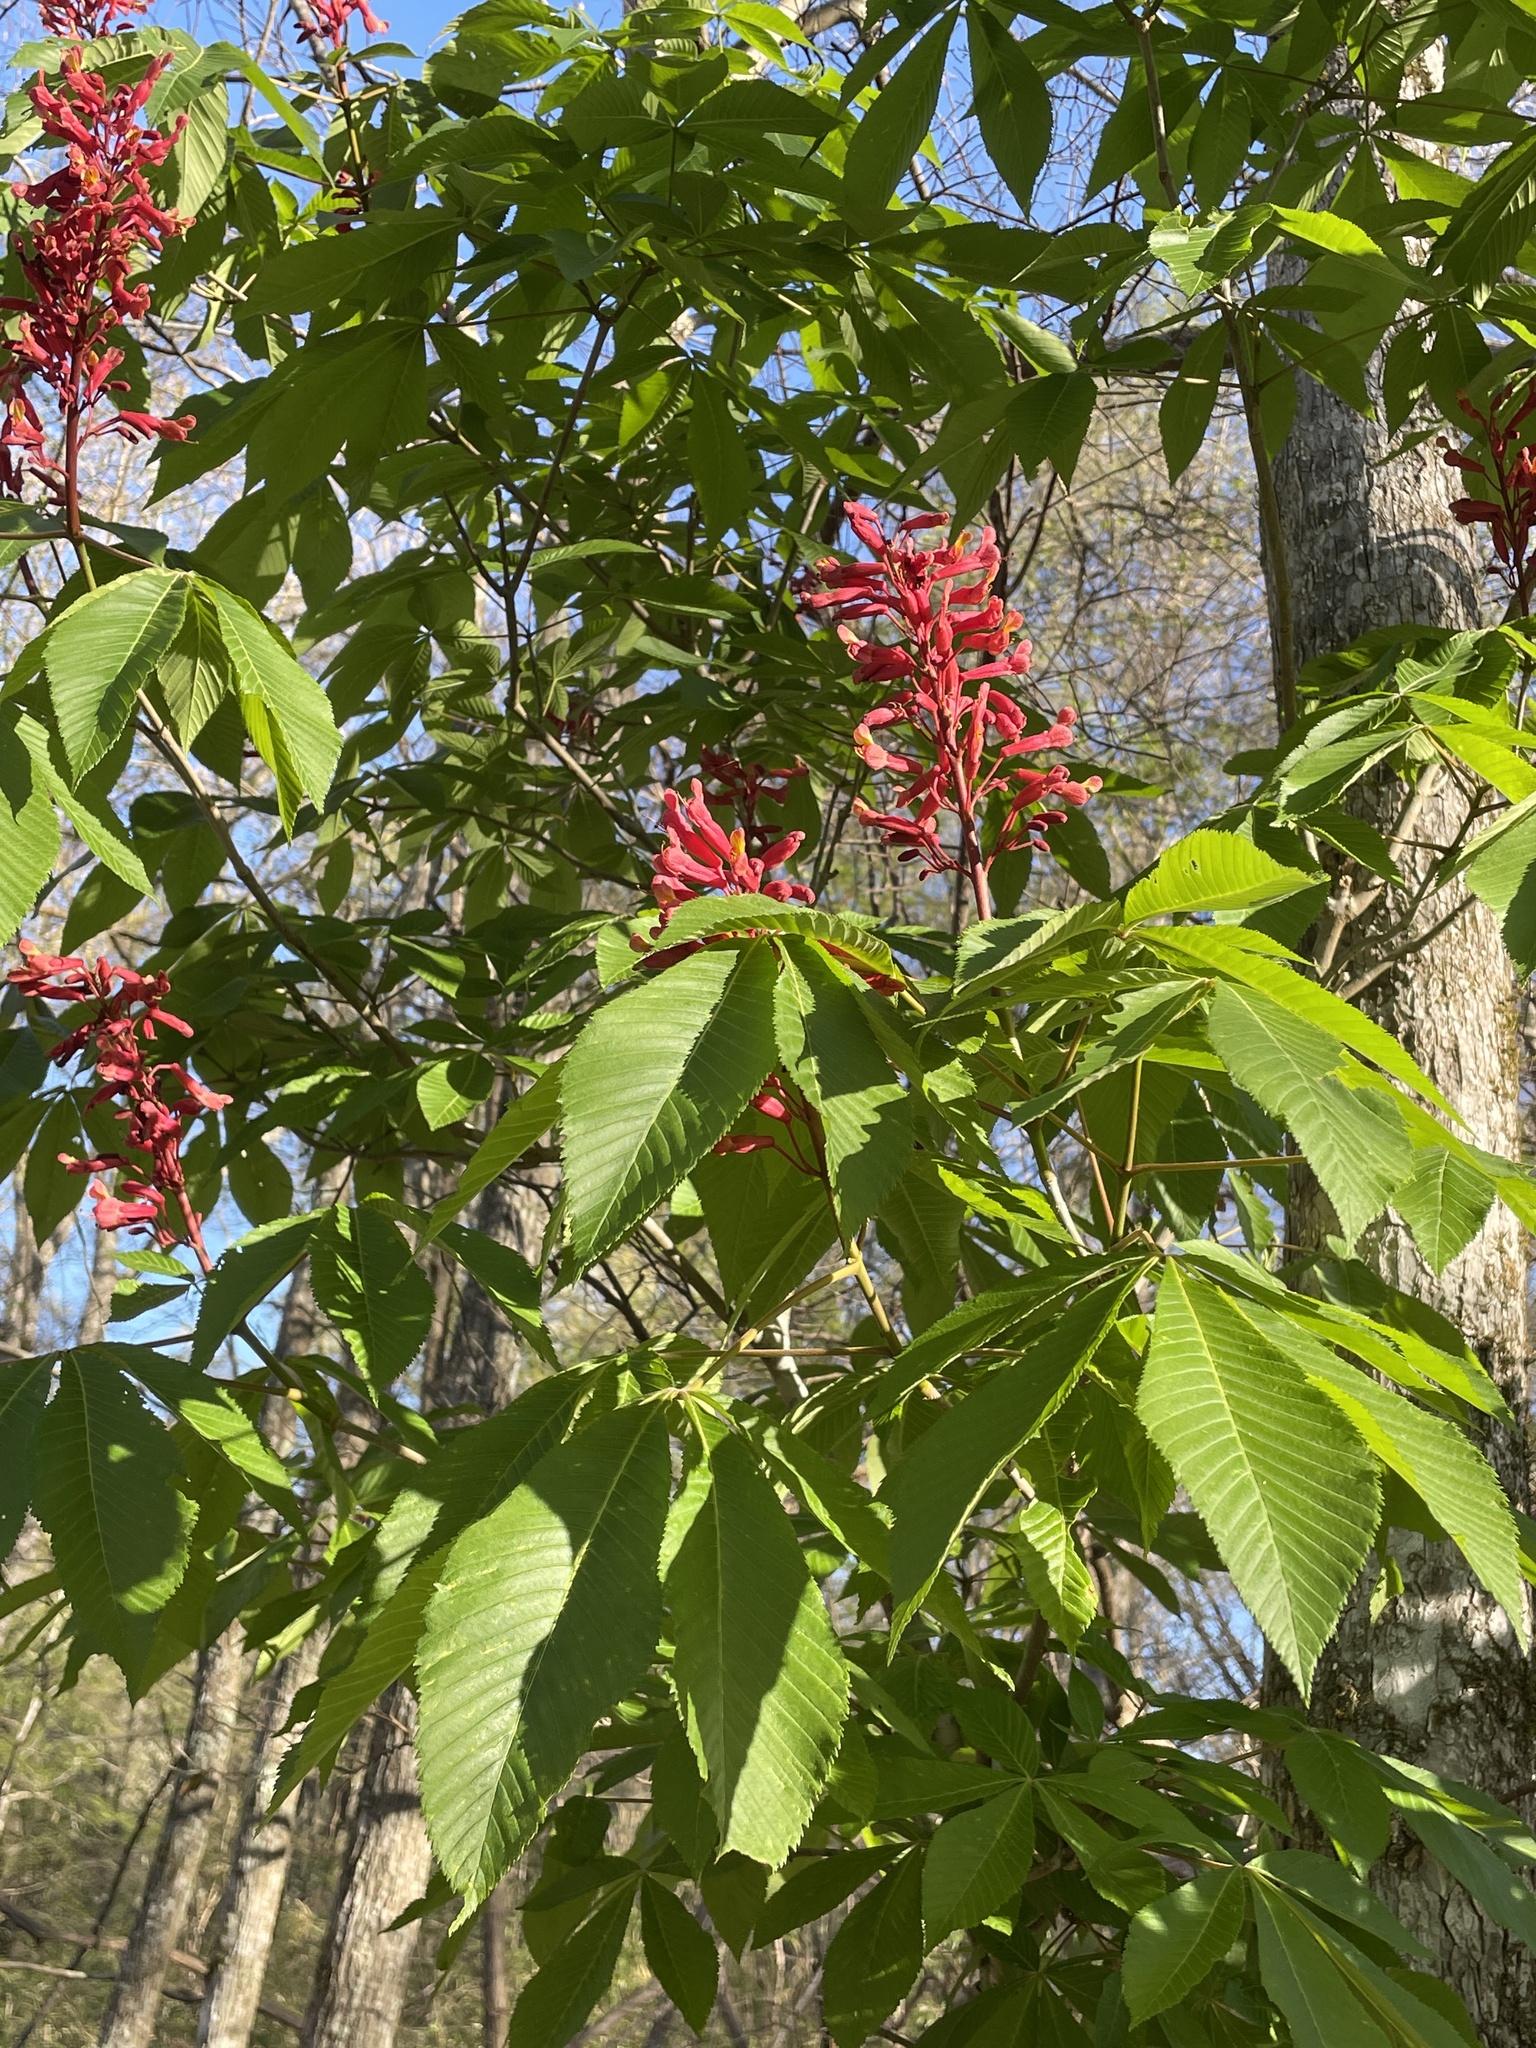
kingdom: Plantae
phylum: Tracheophyta
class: Magnoliopsida
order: Sapindales
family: Sapindaceae
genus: Aesculus
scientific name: Aesculus pavia
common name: Red buckeye
